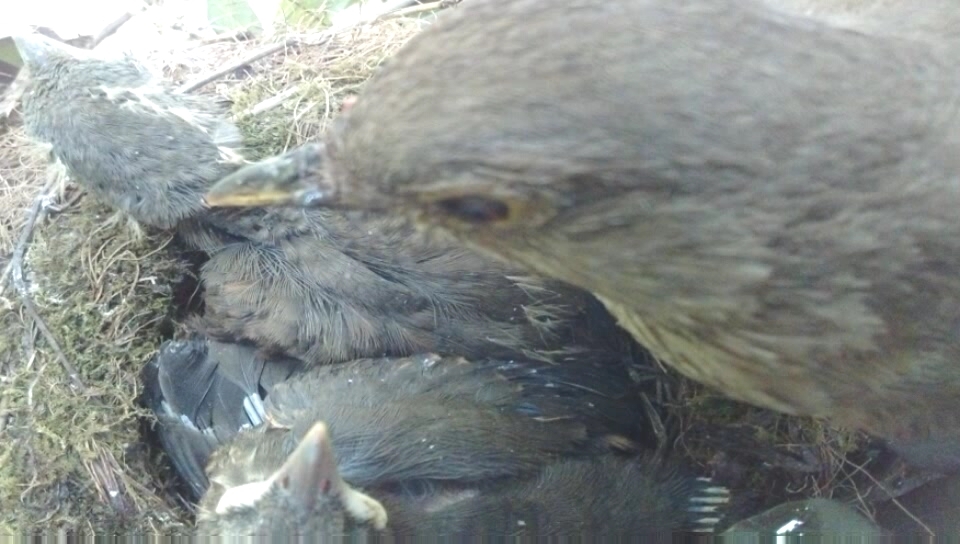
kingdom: Animalia
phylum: Chordata
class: Aves
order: Passeriformes
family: Turdidae
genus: Turdus
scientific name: Turdus rufiventris
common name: Rufous-bellied thrush
